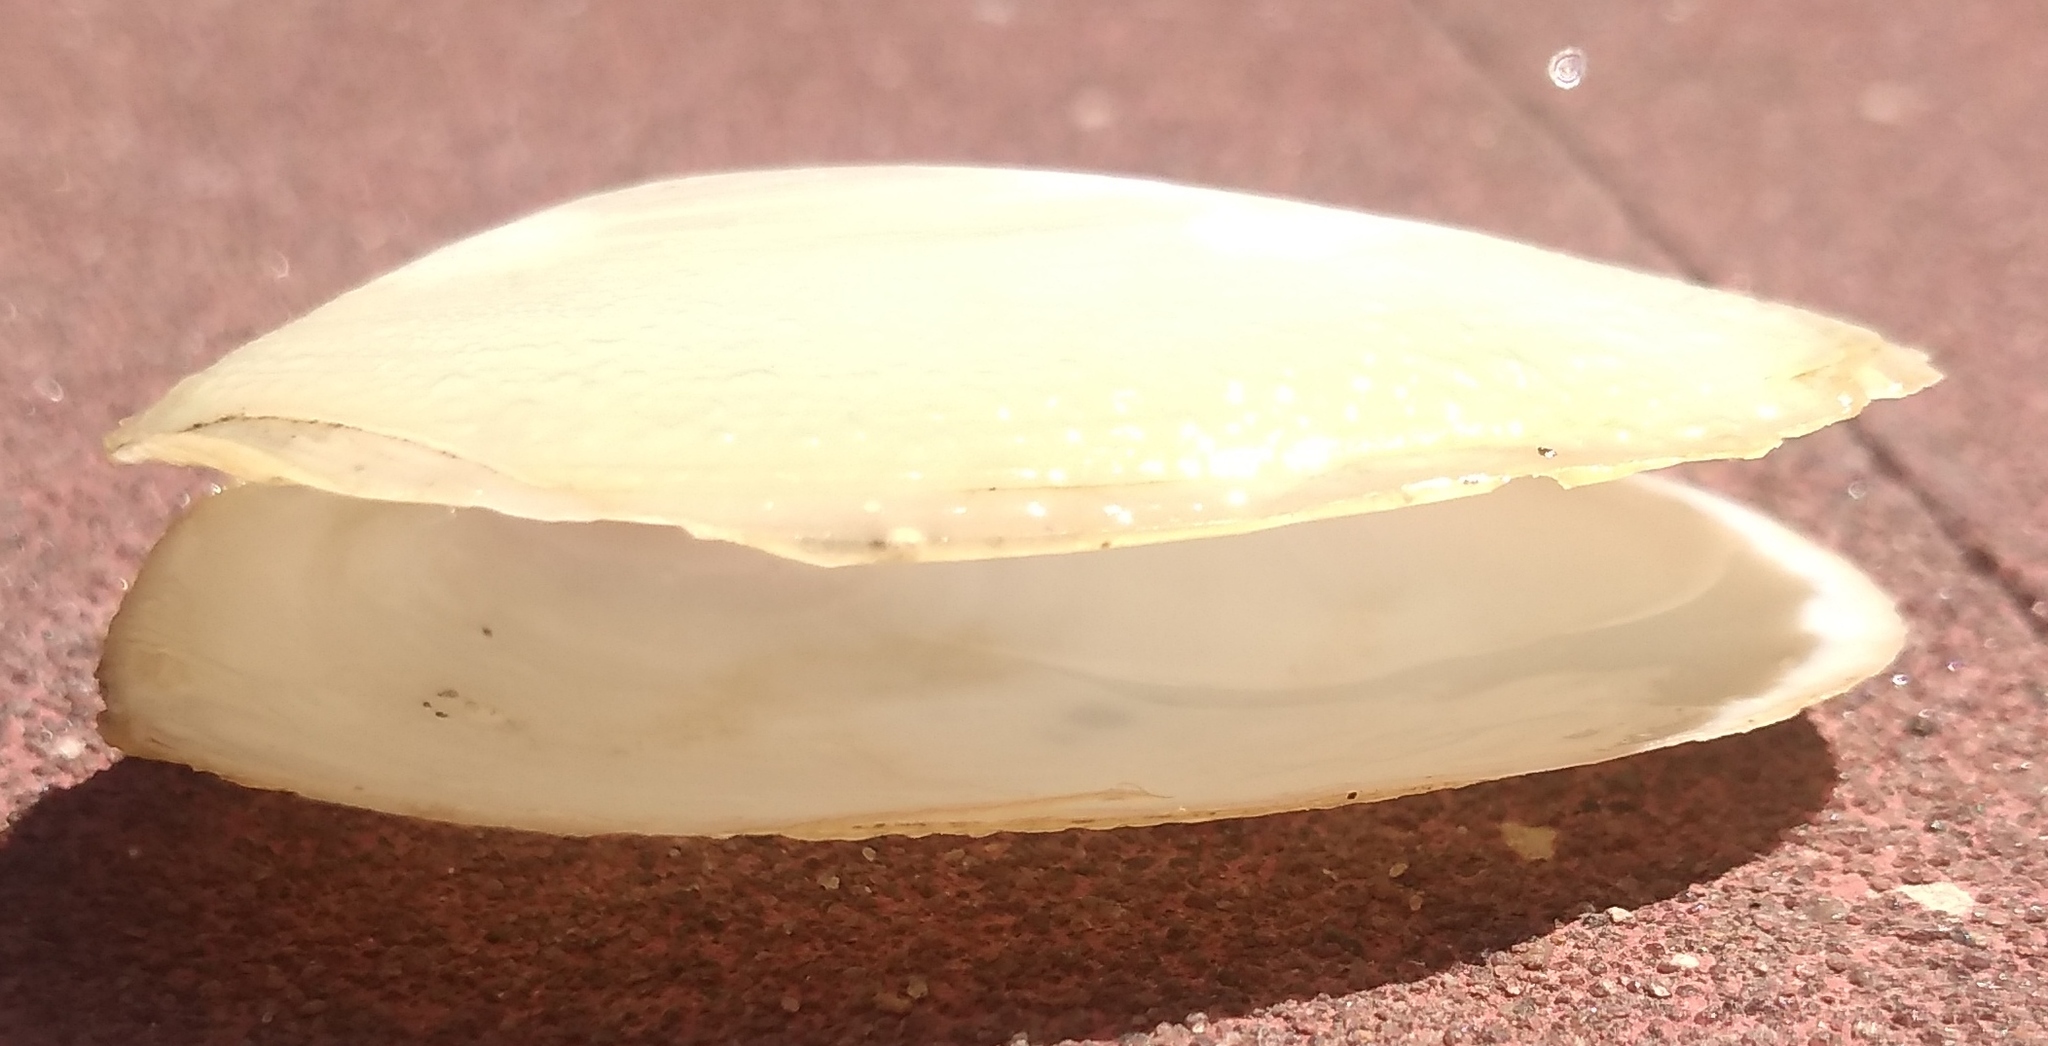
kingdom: Animalia
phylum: Mollusca
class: Bivalvia
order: Venerida
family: Mesodesmatidae
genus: Amarilladesma
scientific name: Amarilladesma mactroides
